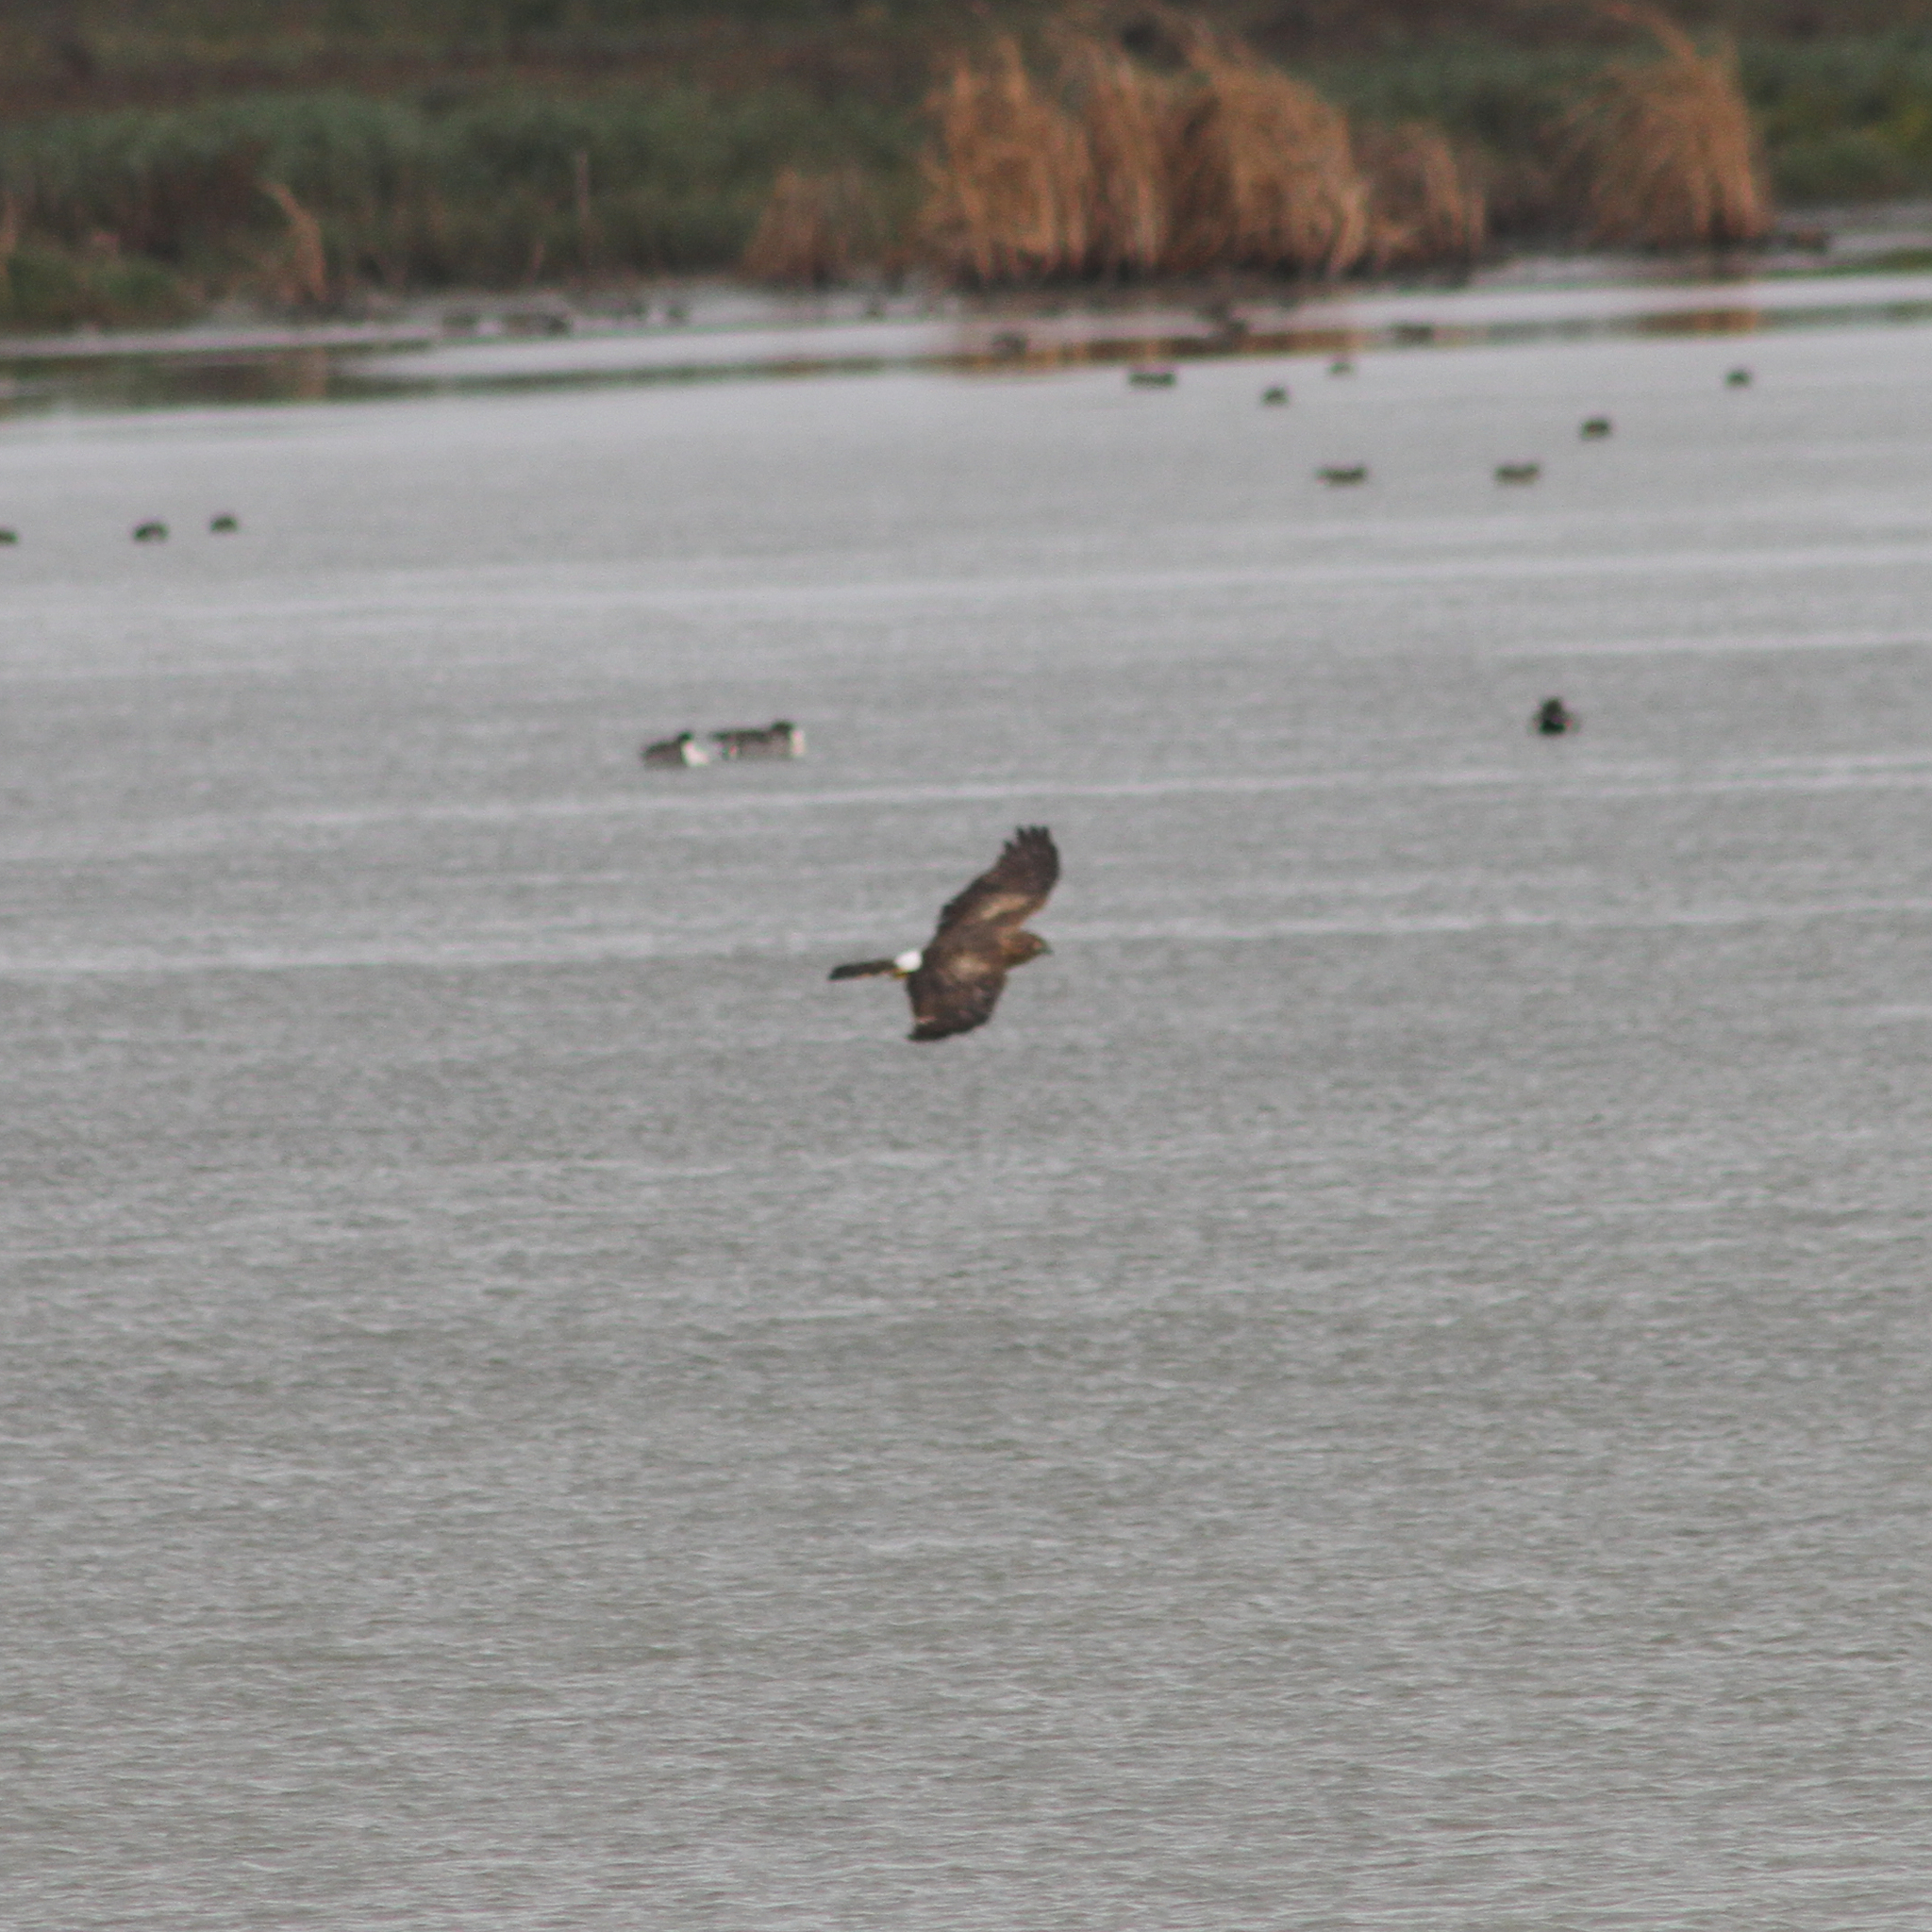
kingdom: Animalia
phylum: Chordata
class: Aves
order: Accipitriformes
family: Accipitridae
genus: Circus
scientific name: Circus cyaneus
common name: Hen harrier
